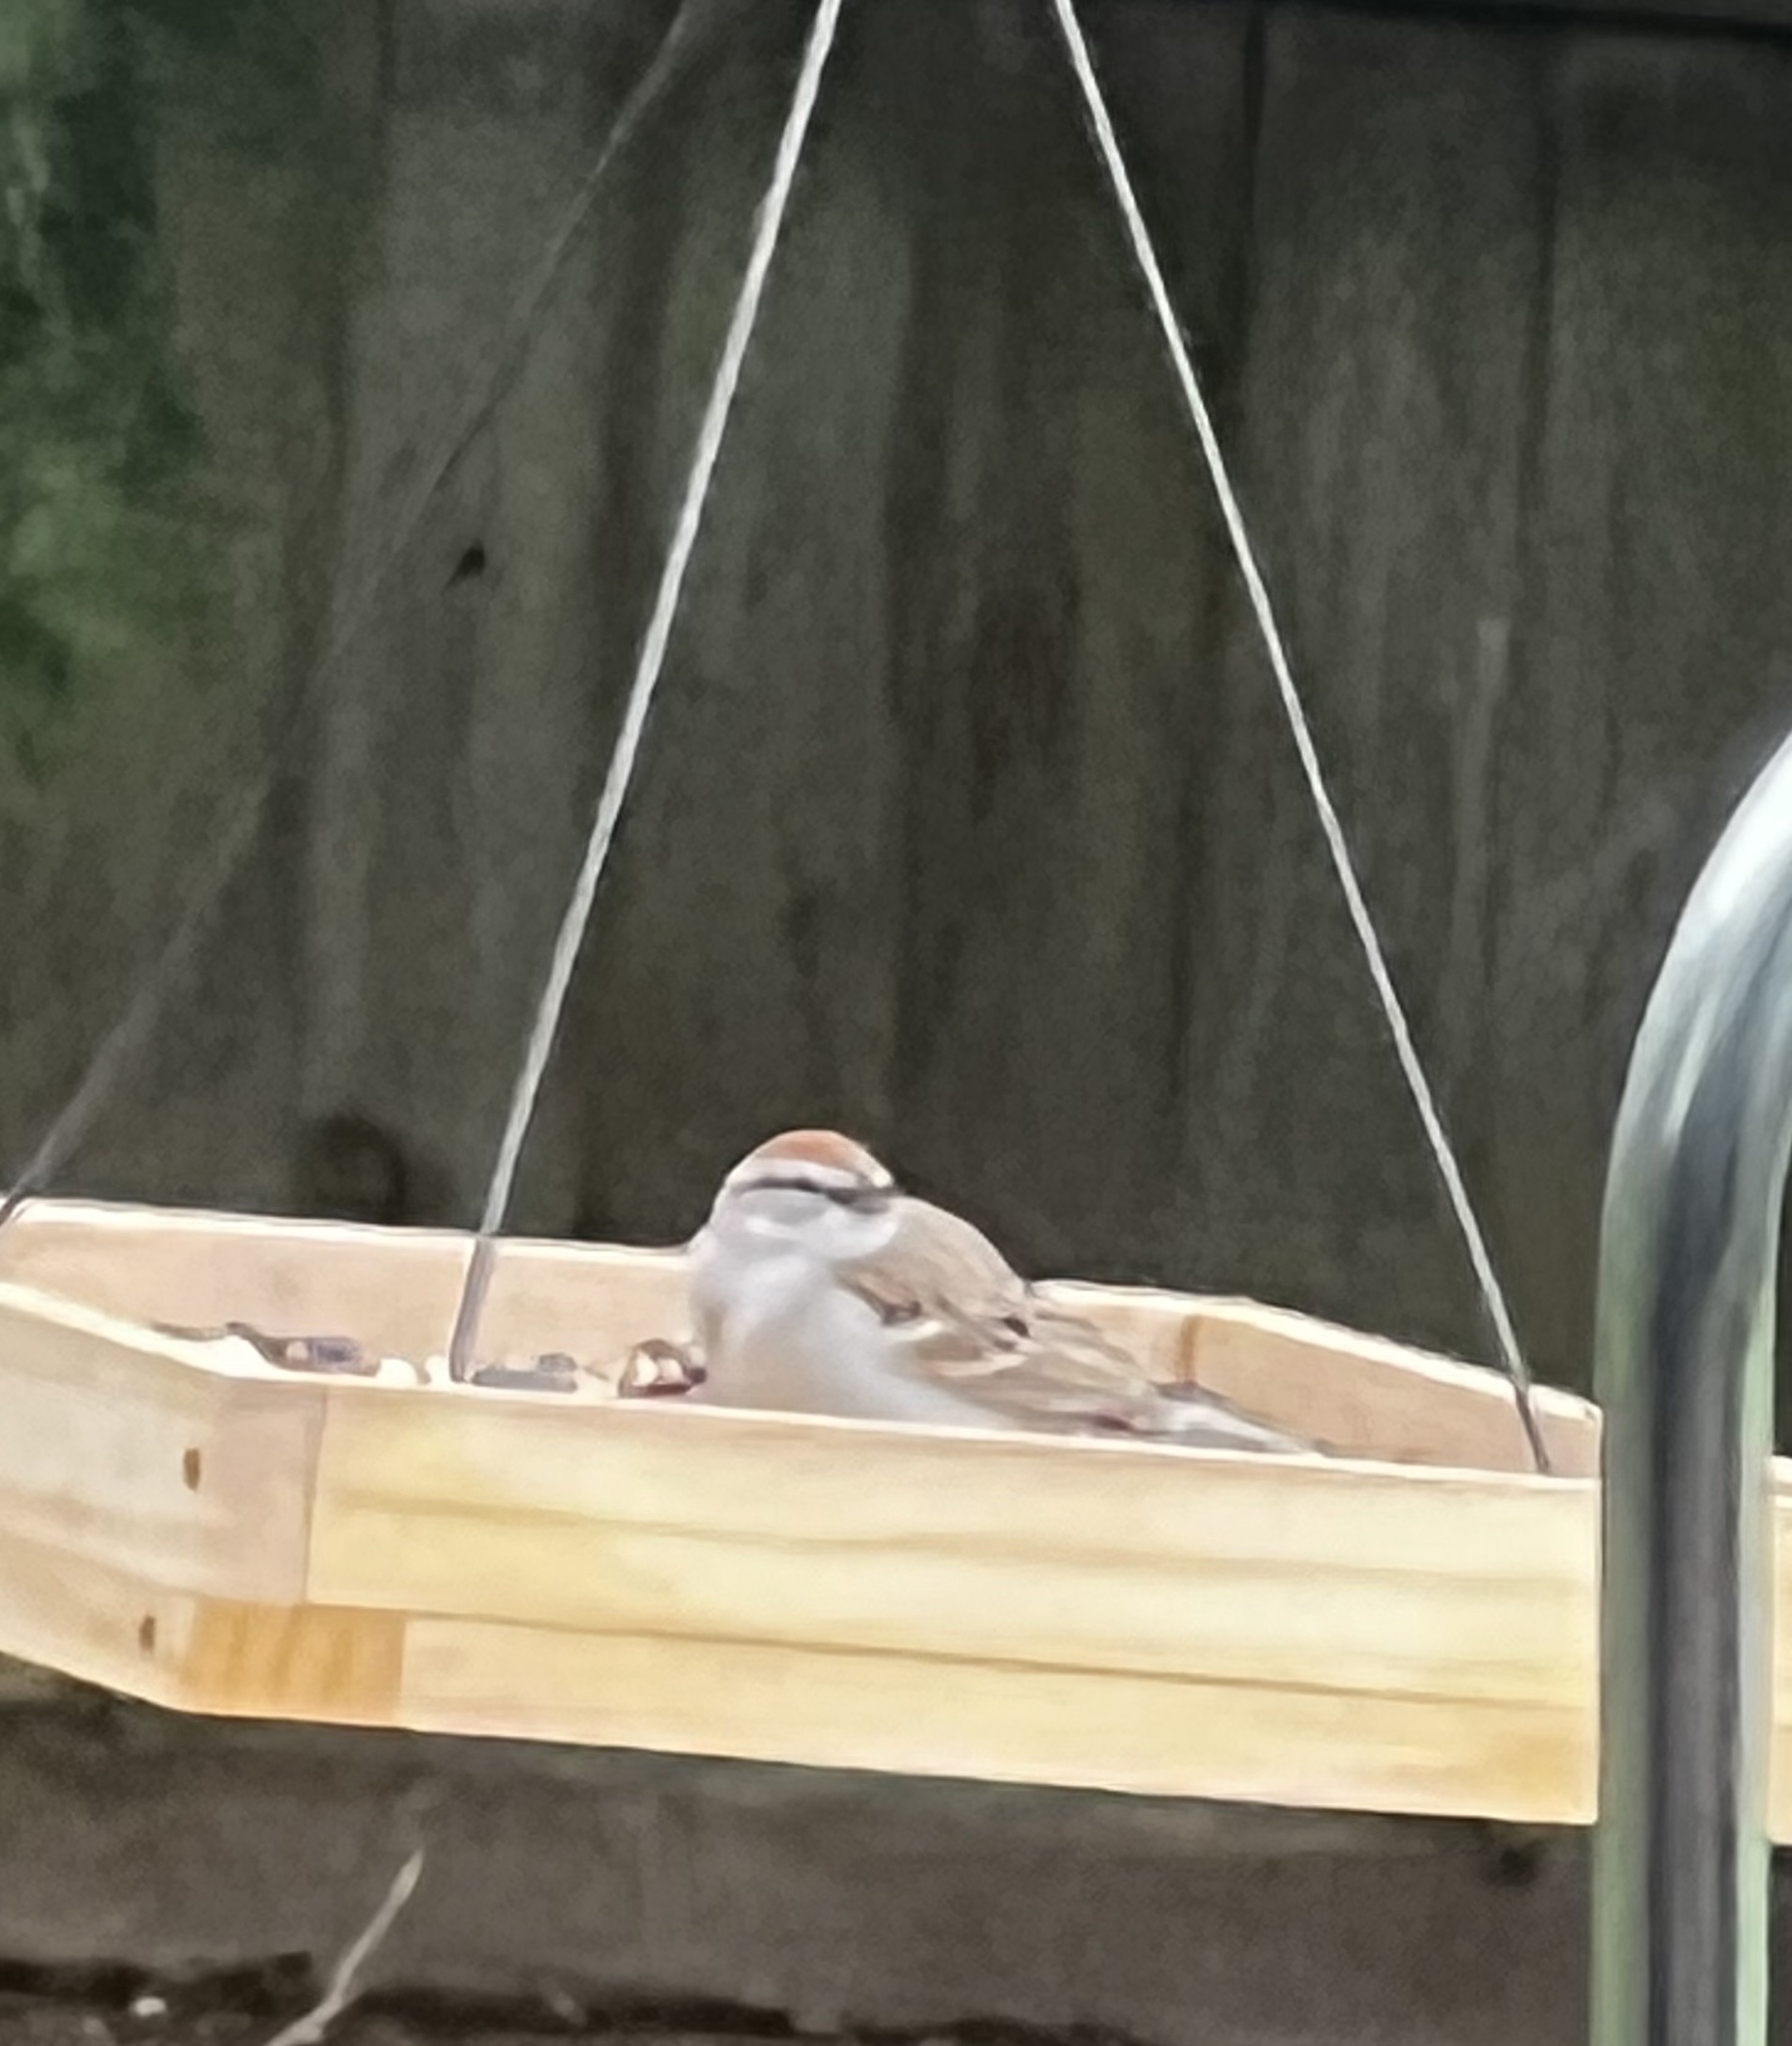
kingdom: Animalia
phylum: Chordata
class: Aves
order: Passeriformes
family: Passerellidae
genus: Spizella
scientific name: Spizella passerina
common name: Chipping sparrow
